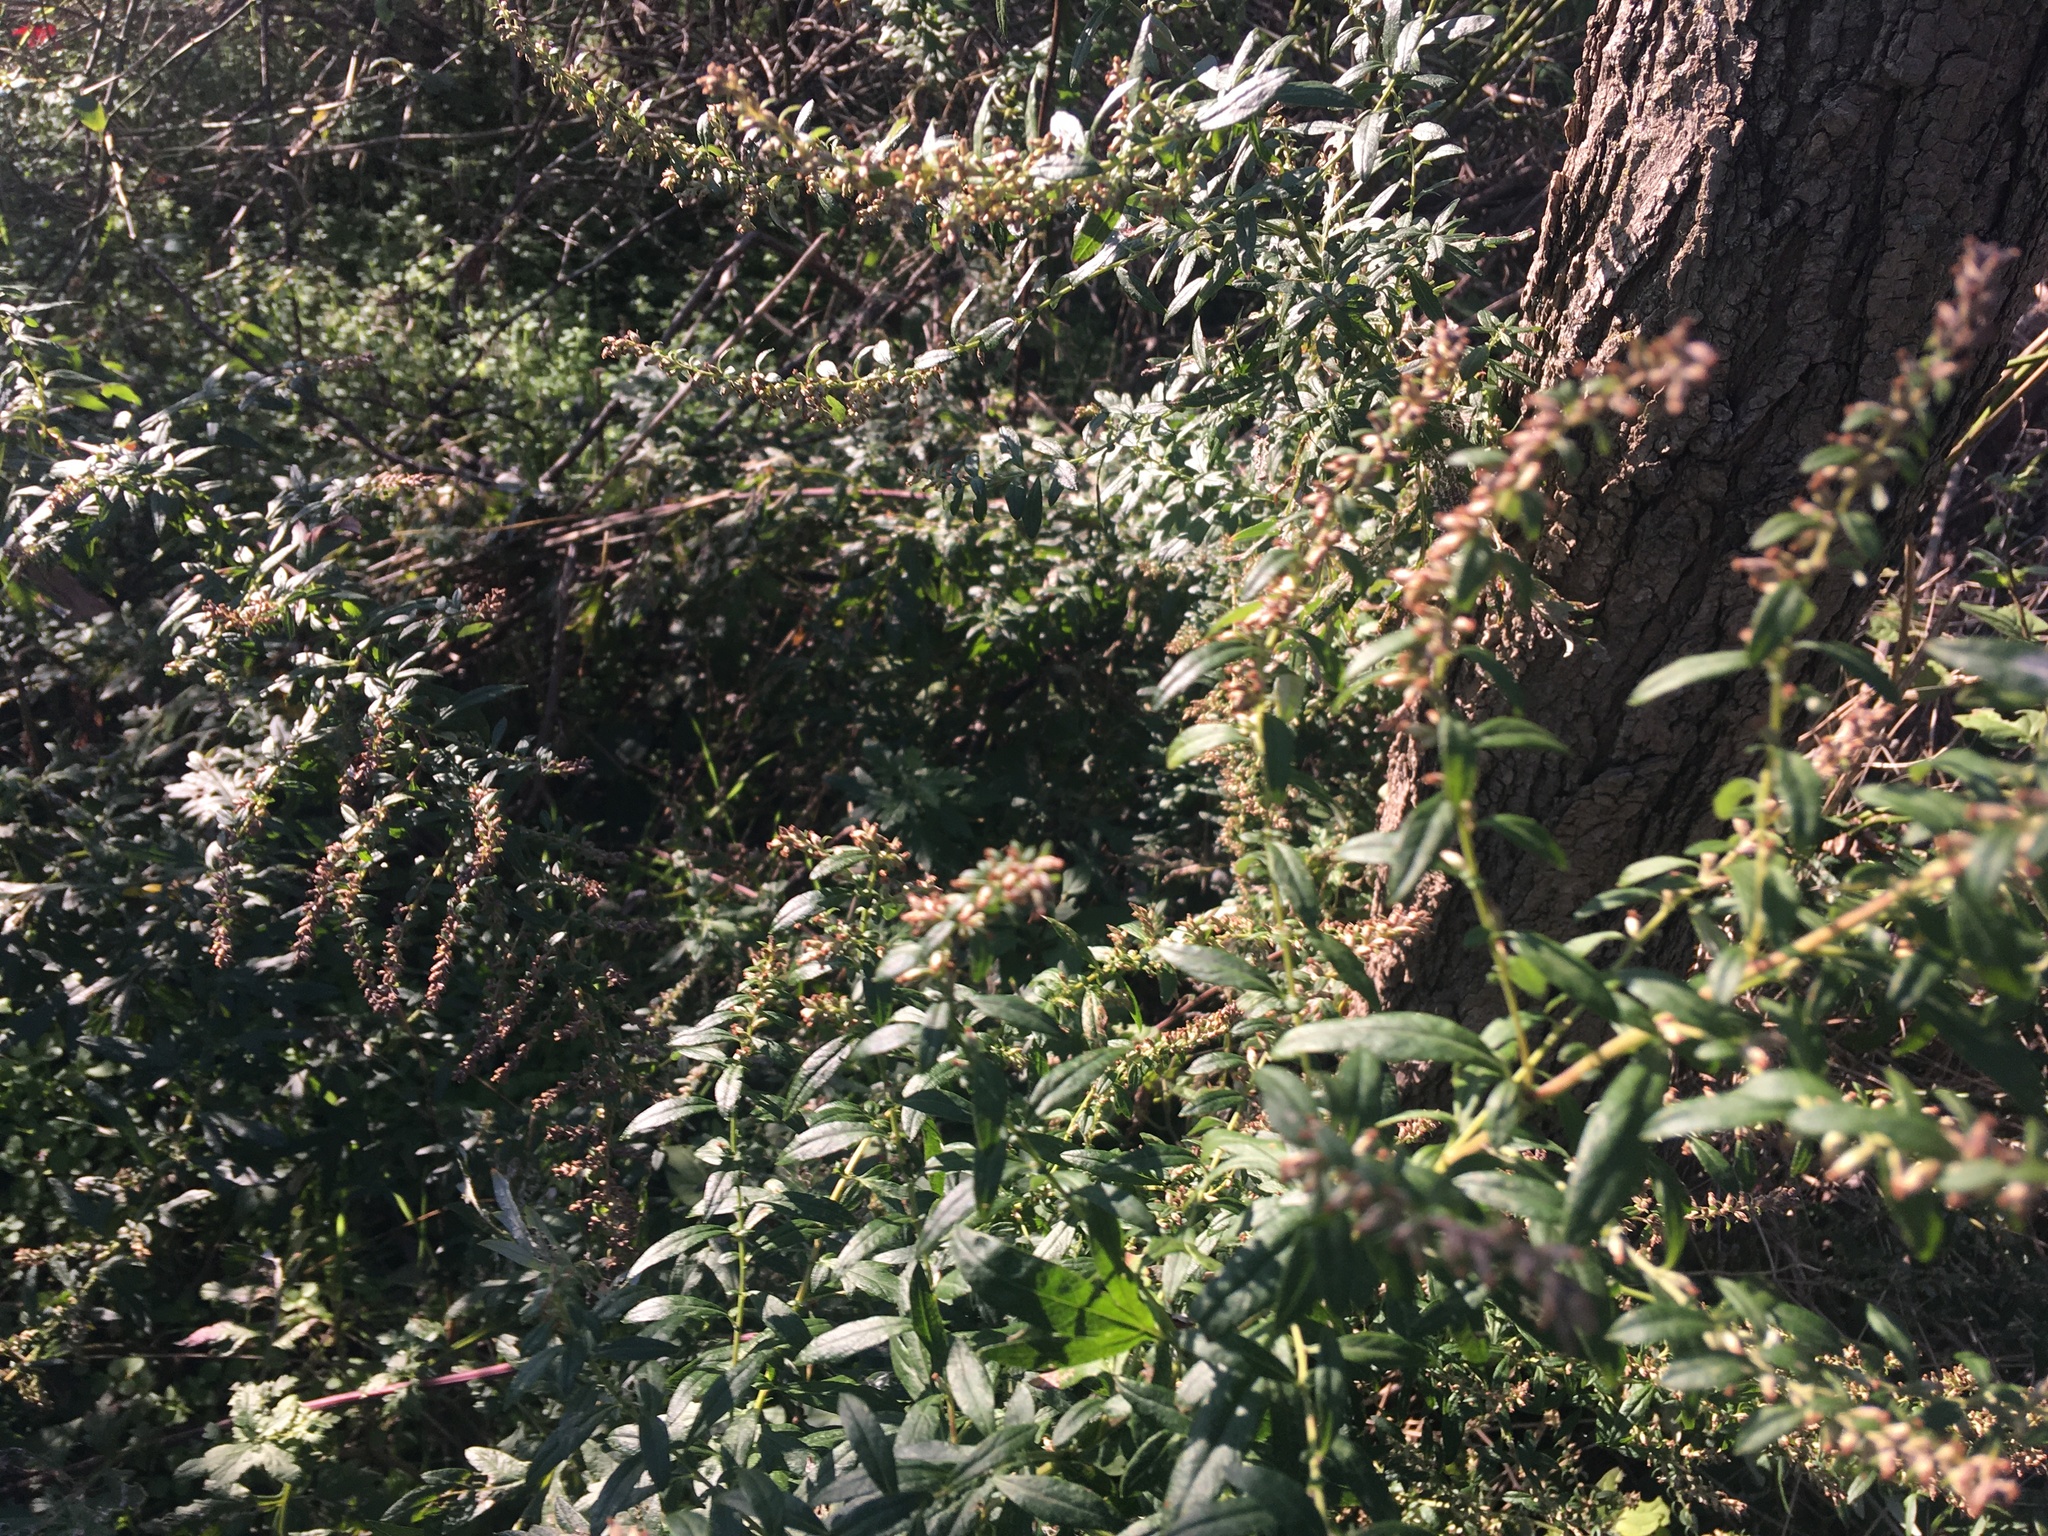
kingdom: Plantae
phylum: Tracheophyta
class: Magnoliopsida
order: Asterales
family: Asteraceae
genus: Artemisia
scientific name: Artemisia vulgaris
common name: Mugwort
